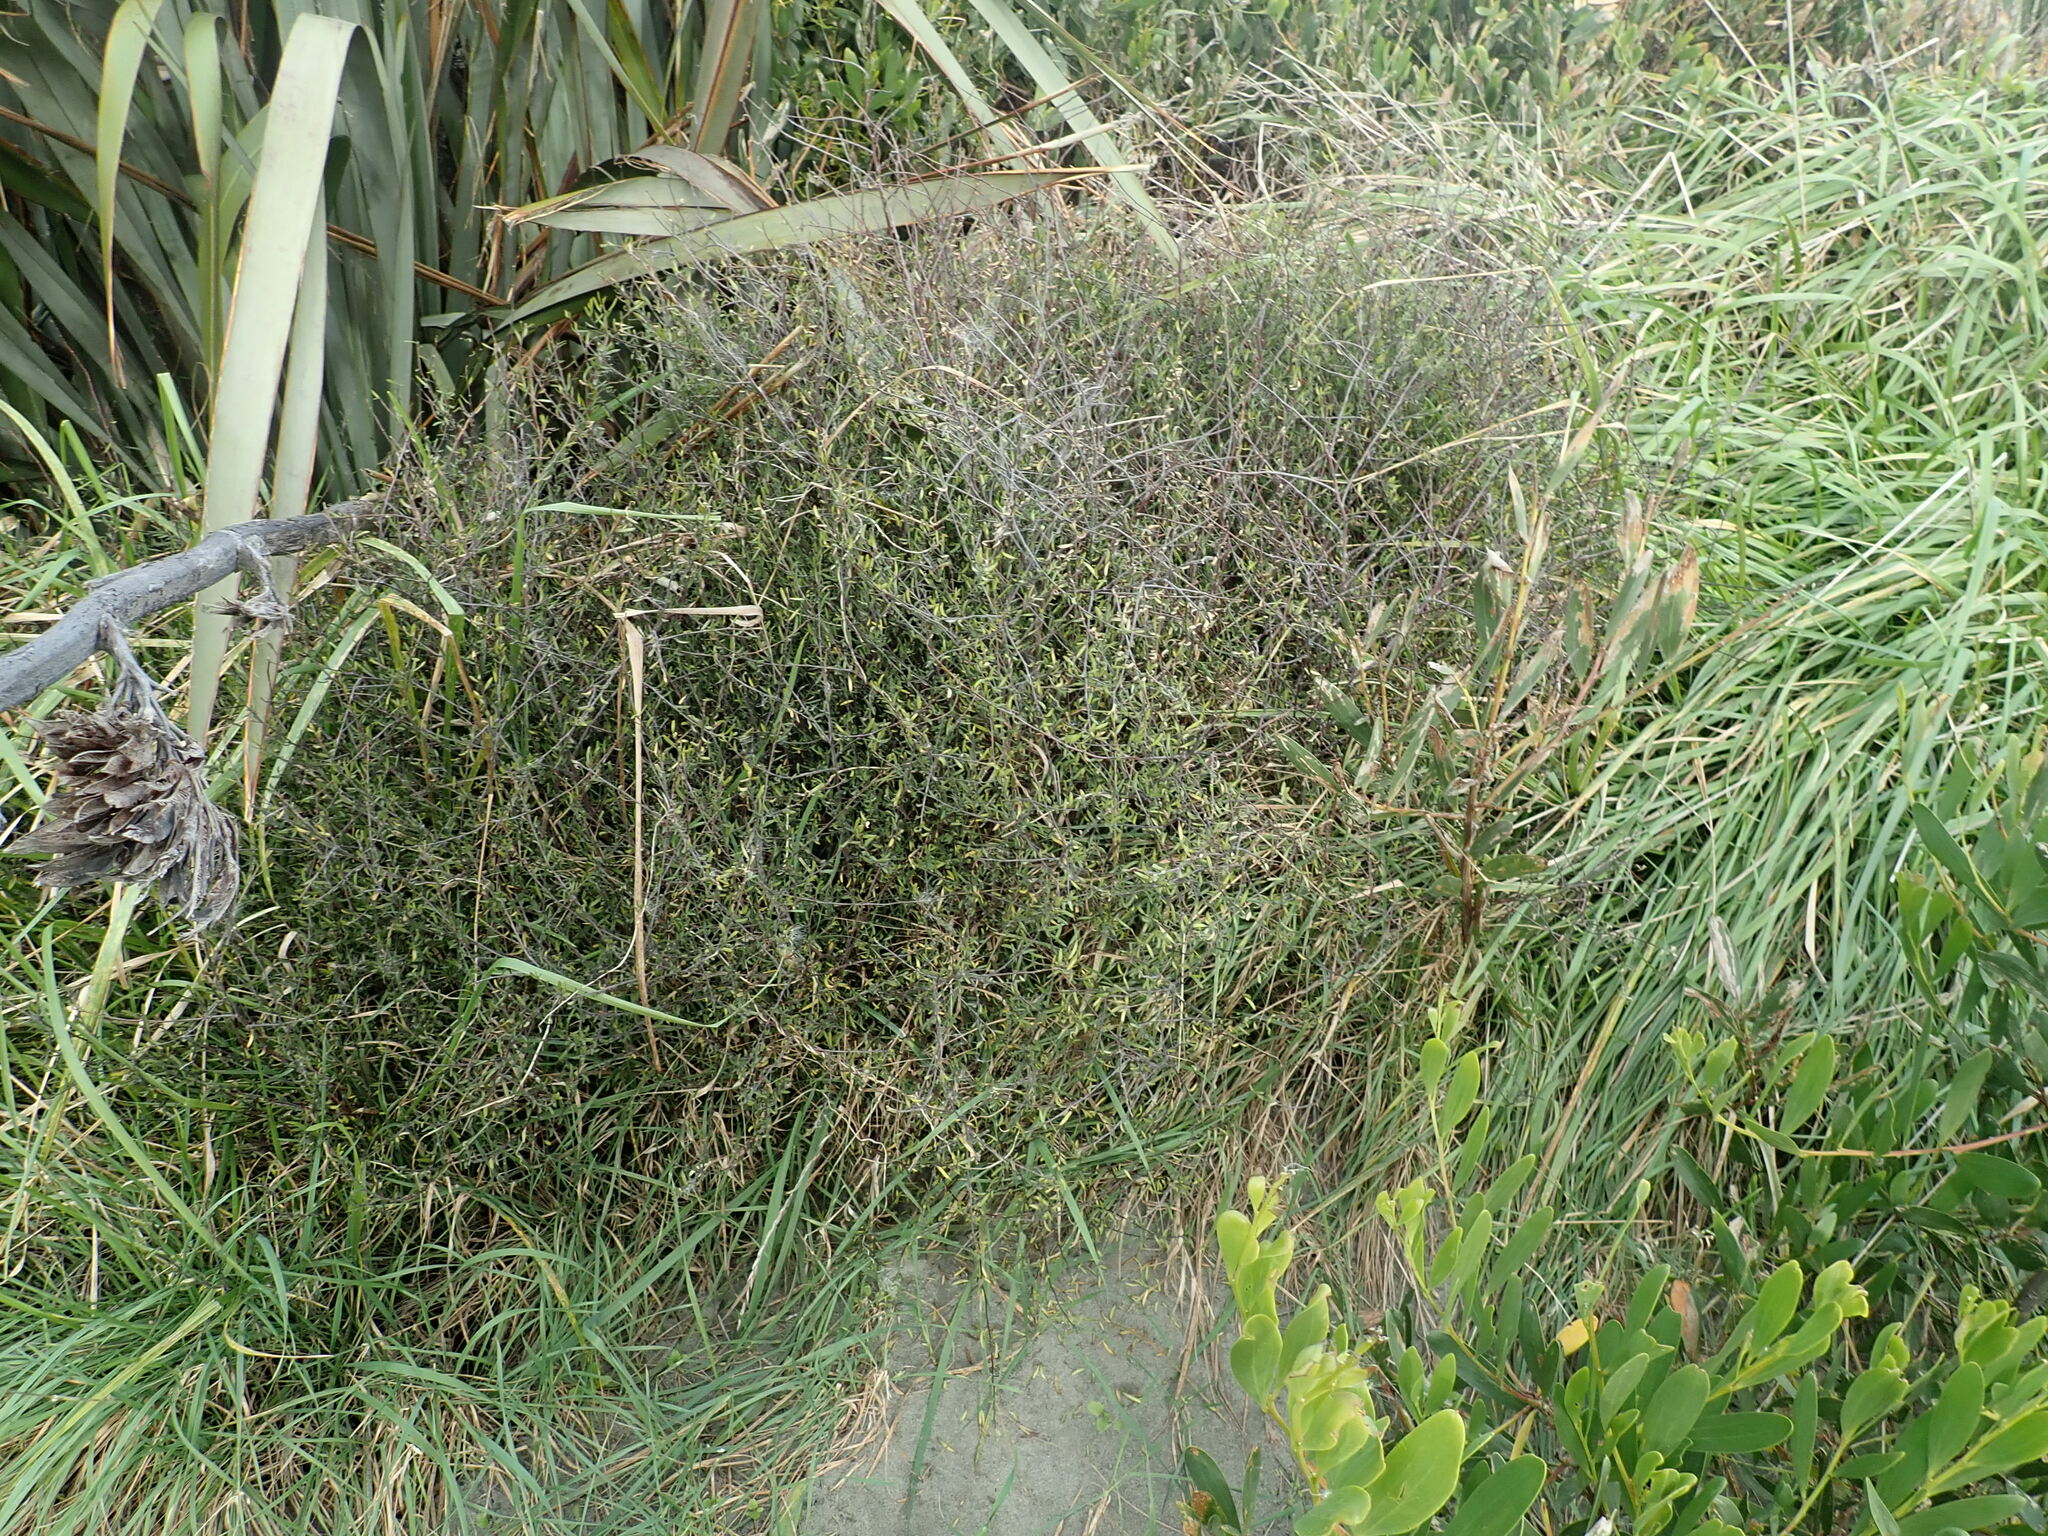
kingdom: Plantae
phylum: Tracheophyta
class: Magnoliopsida
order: Malvales
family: Malvaceae
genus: Plagianthus
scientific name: Plagianthus divaricatus
